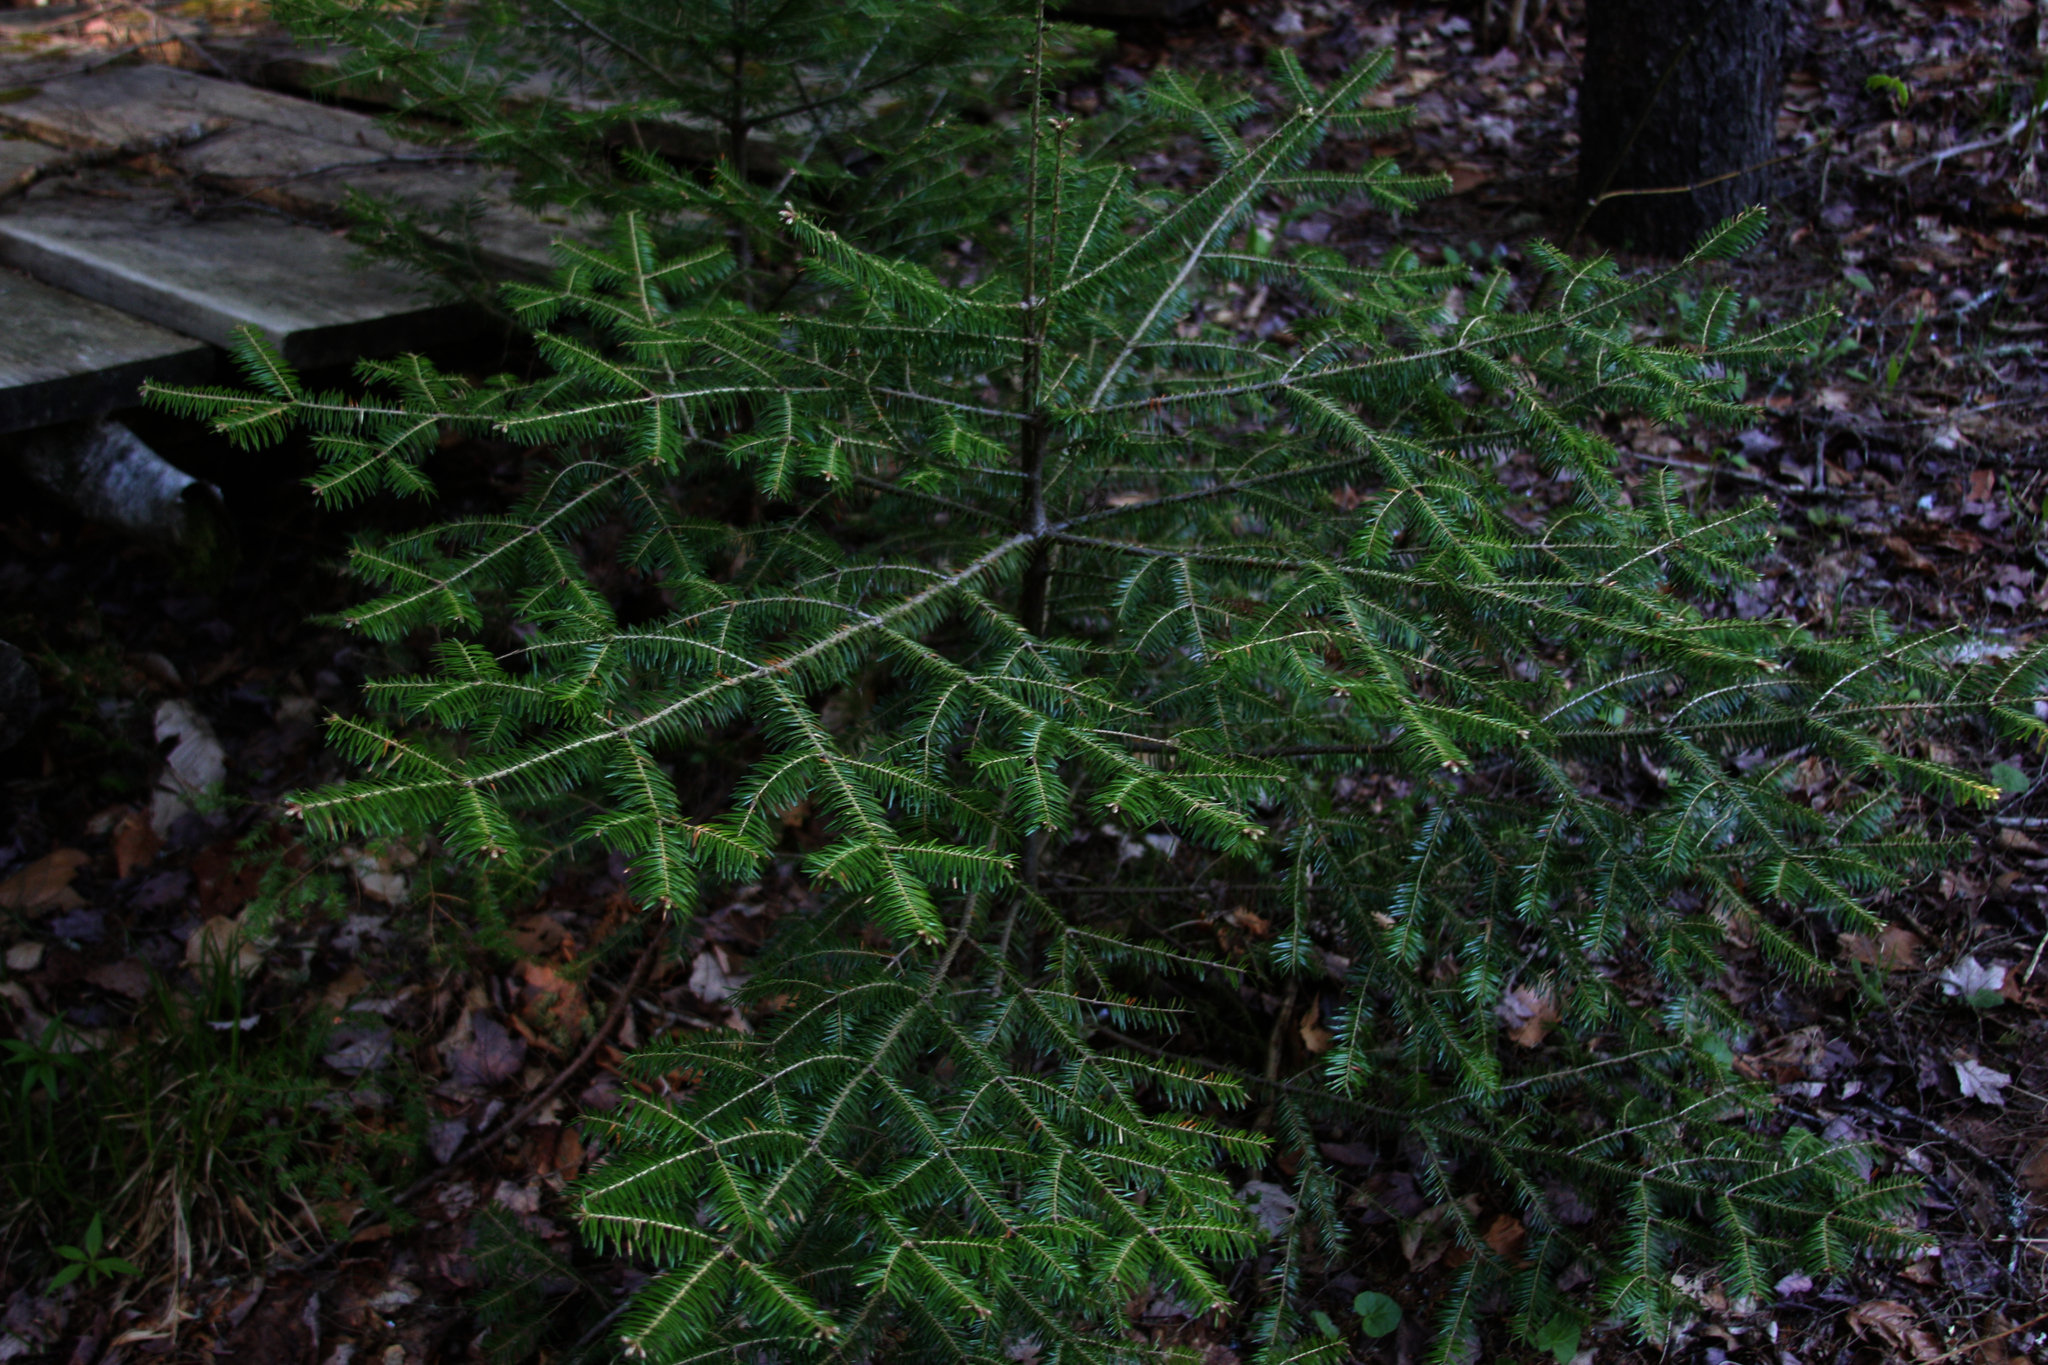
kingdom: Plantae
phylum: Tracheophyta
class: Pinopsida
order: Pinales
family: Pinaceae
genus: Abies
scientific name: Abies balsamea
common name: Balsam fir
